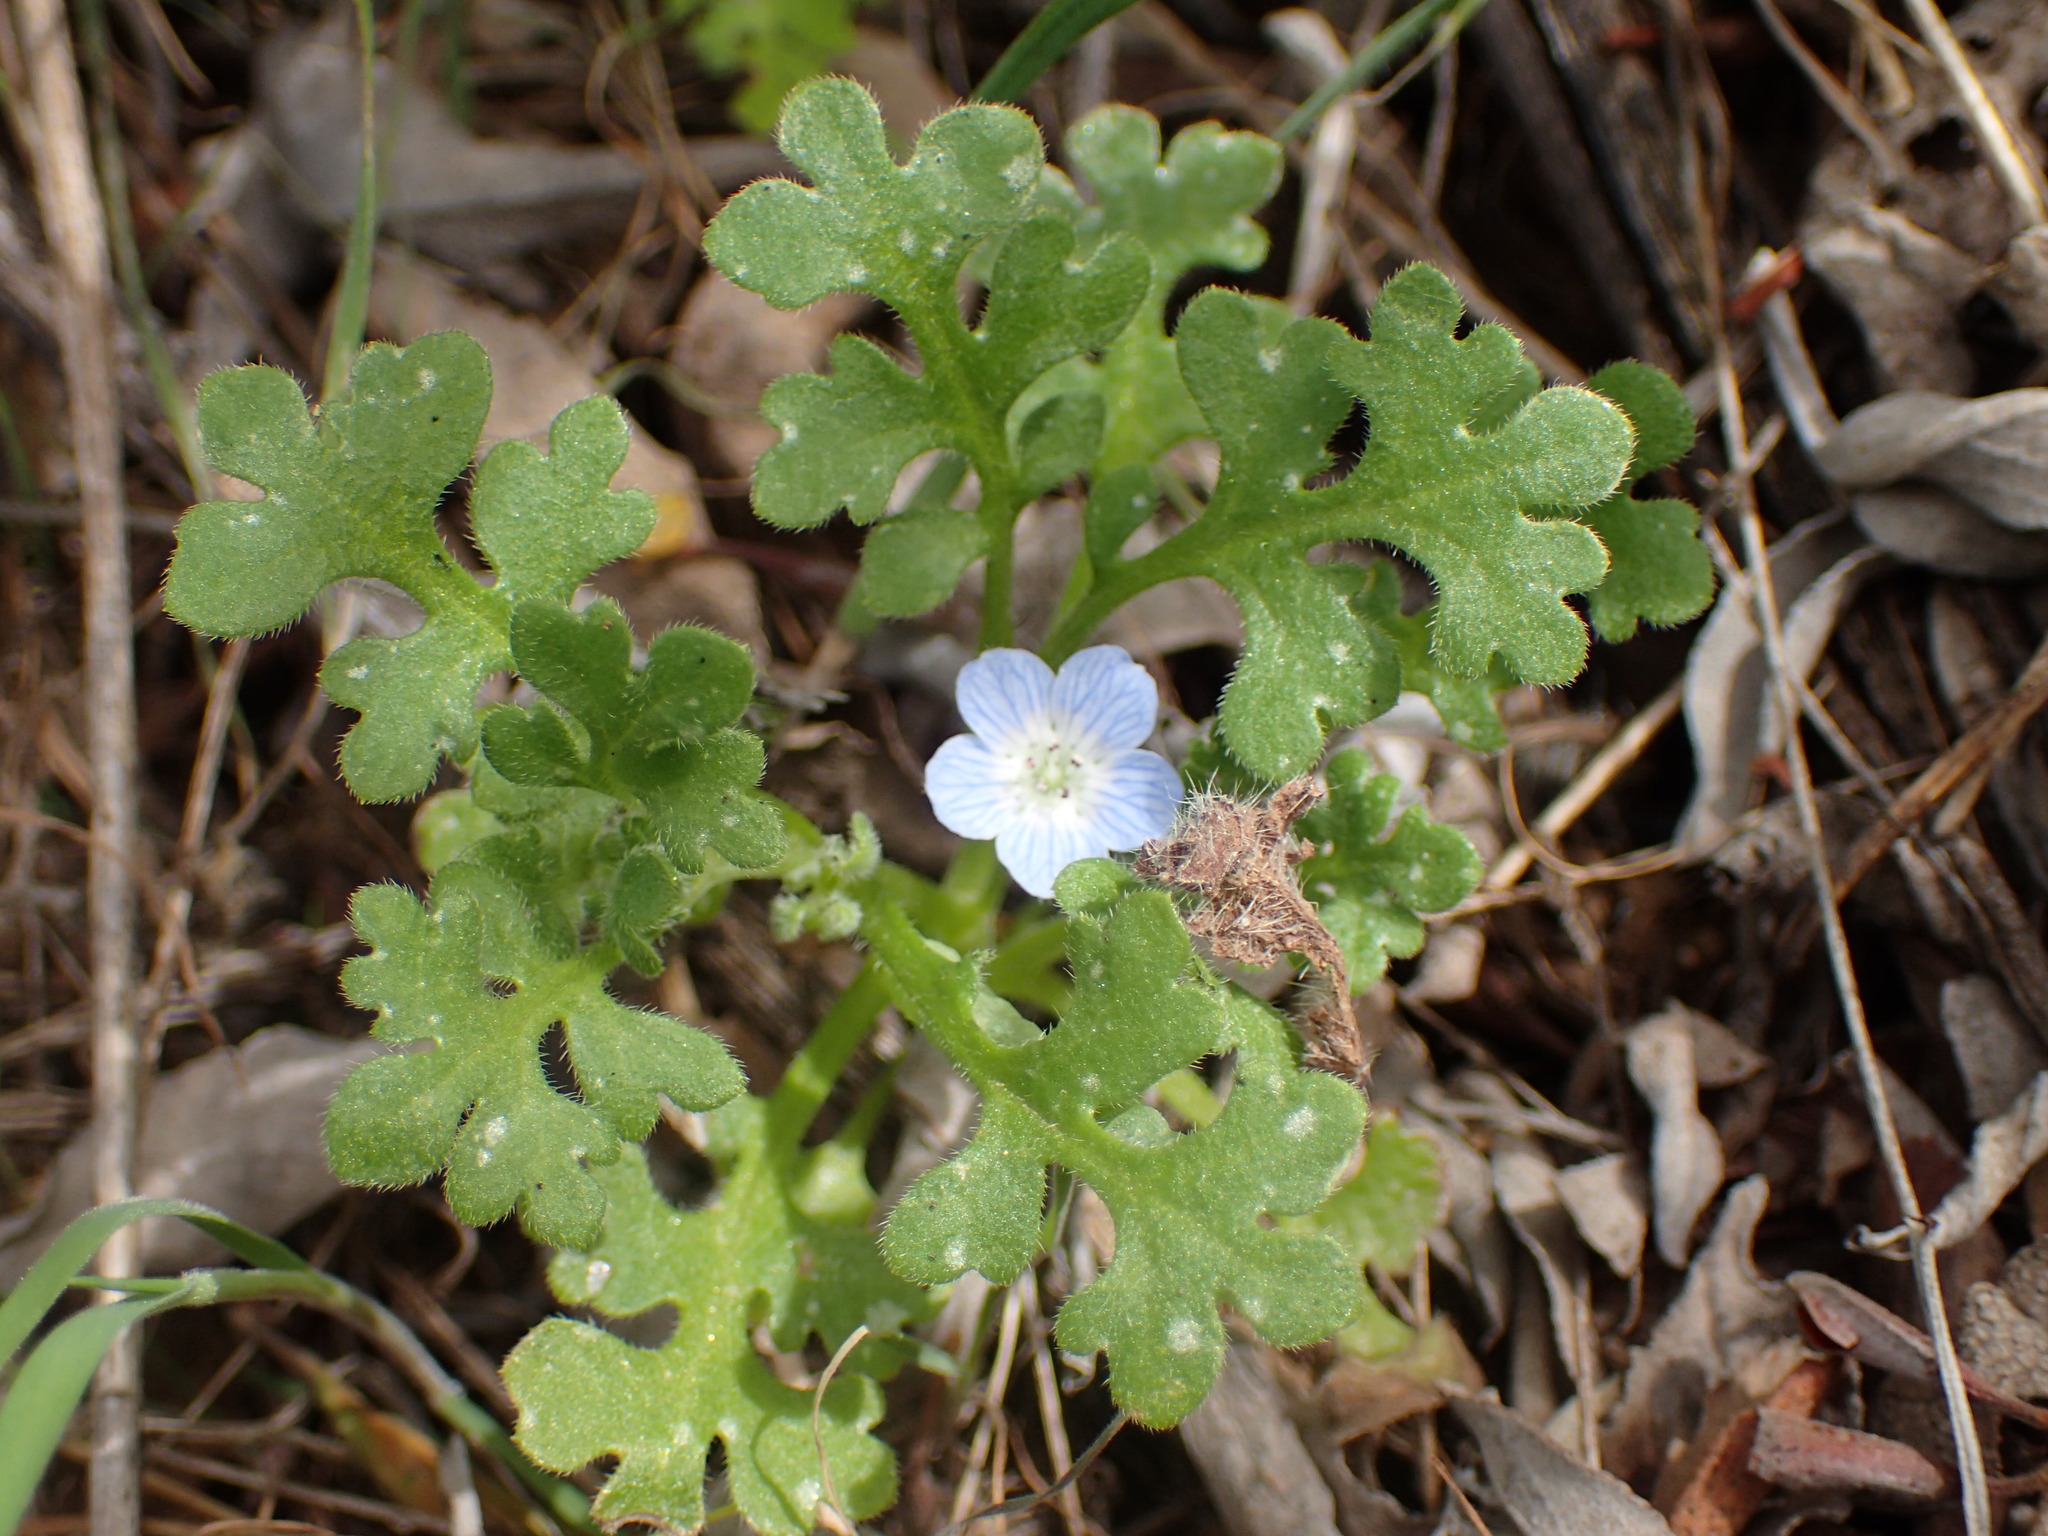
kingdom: Plantae
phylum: Tracheophyta
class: Magnoliopsida
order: Boraginales
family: Hydrophyllaceae
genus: Nemophila
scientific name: Nemophila menziesii
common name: Baby's-blue-eyes
